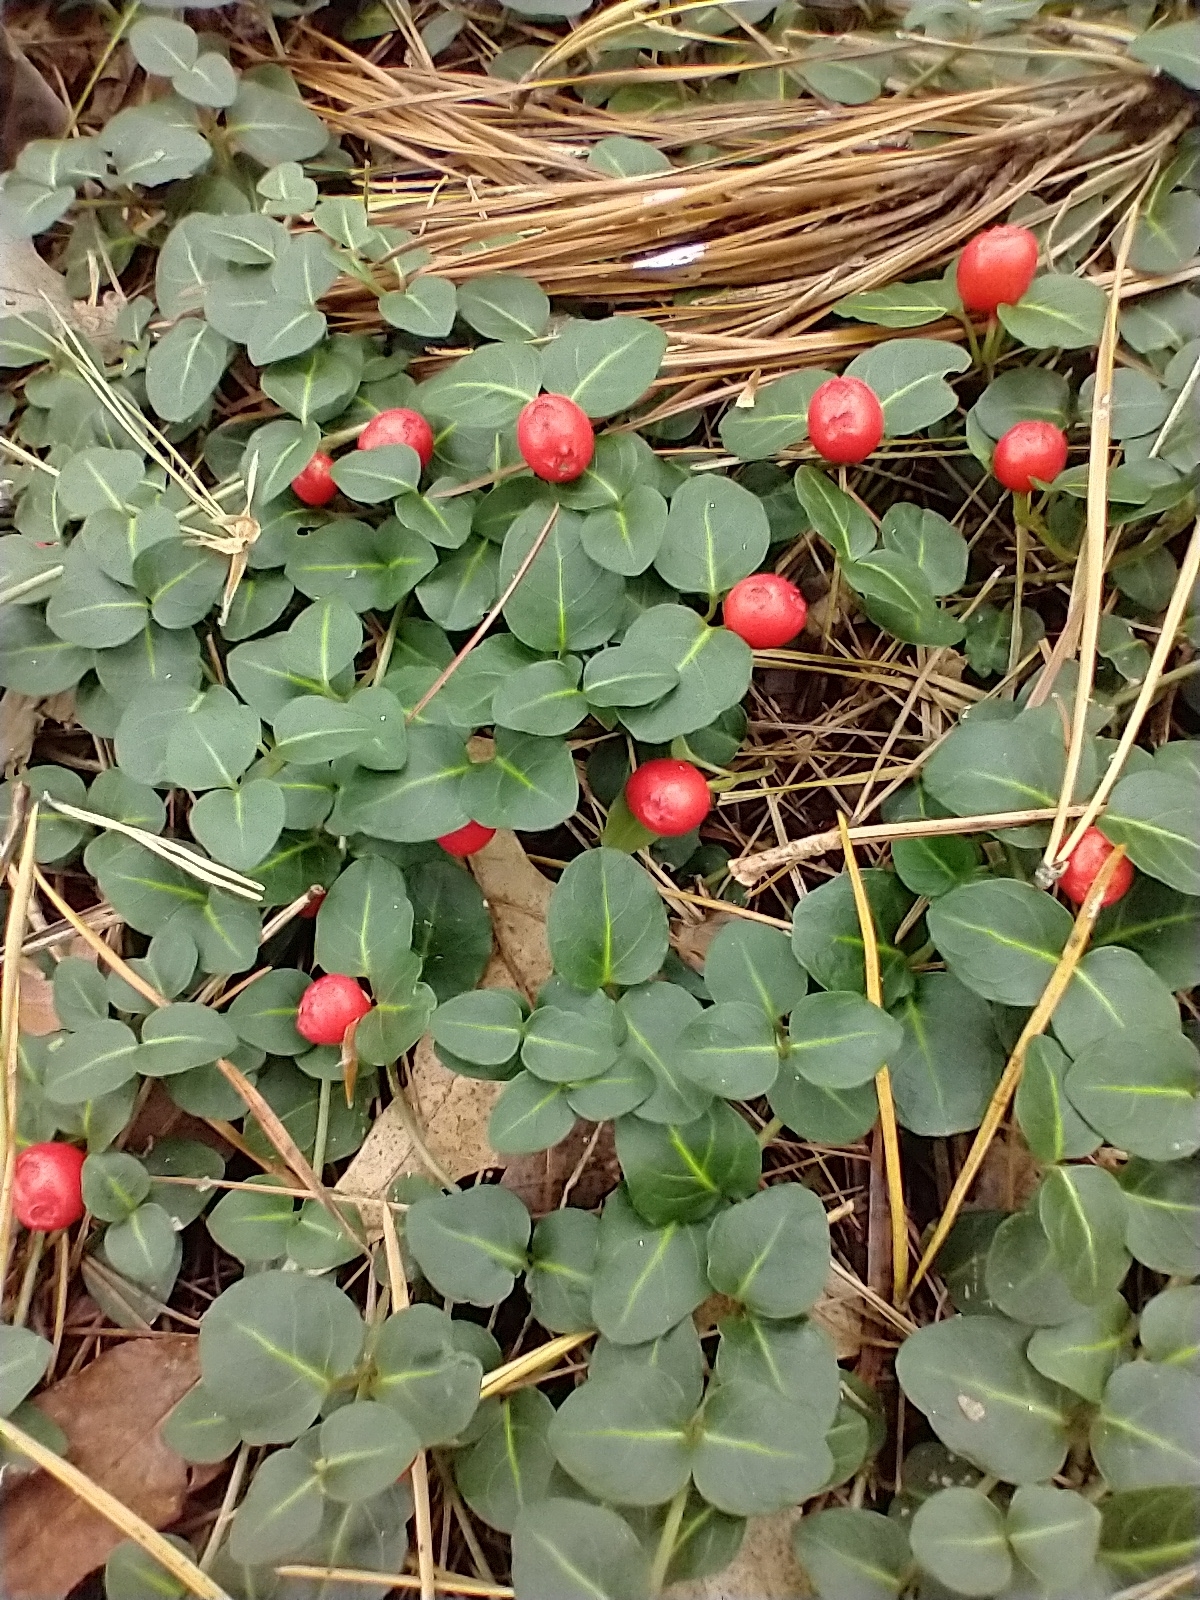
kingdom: Plantae
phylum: Tracheophyta
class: Magnoliopsida
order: Gentianales
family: Rubiaceae
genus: Mitchella
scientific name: Mitchella repens
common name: Partridge-berry
